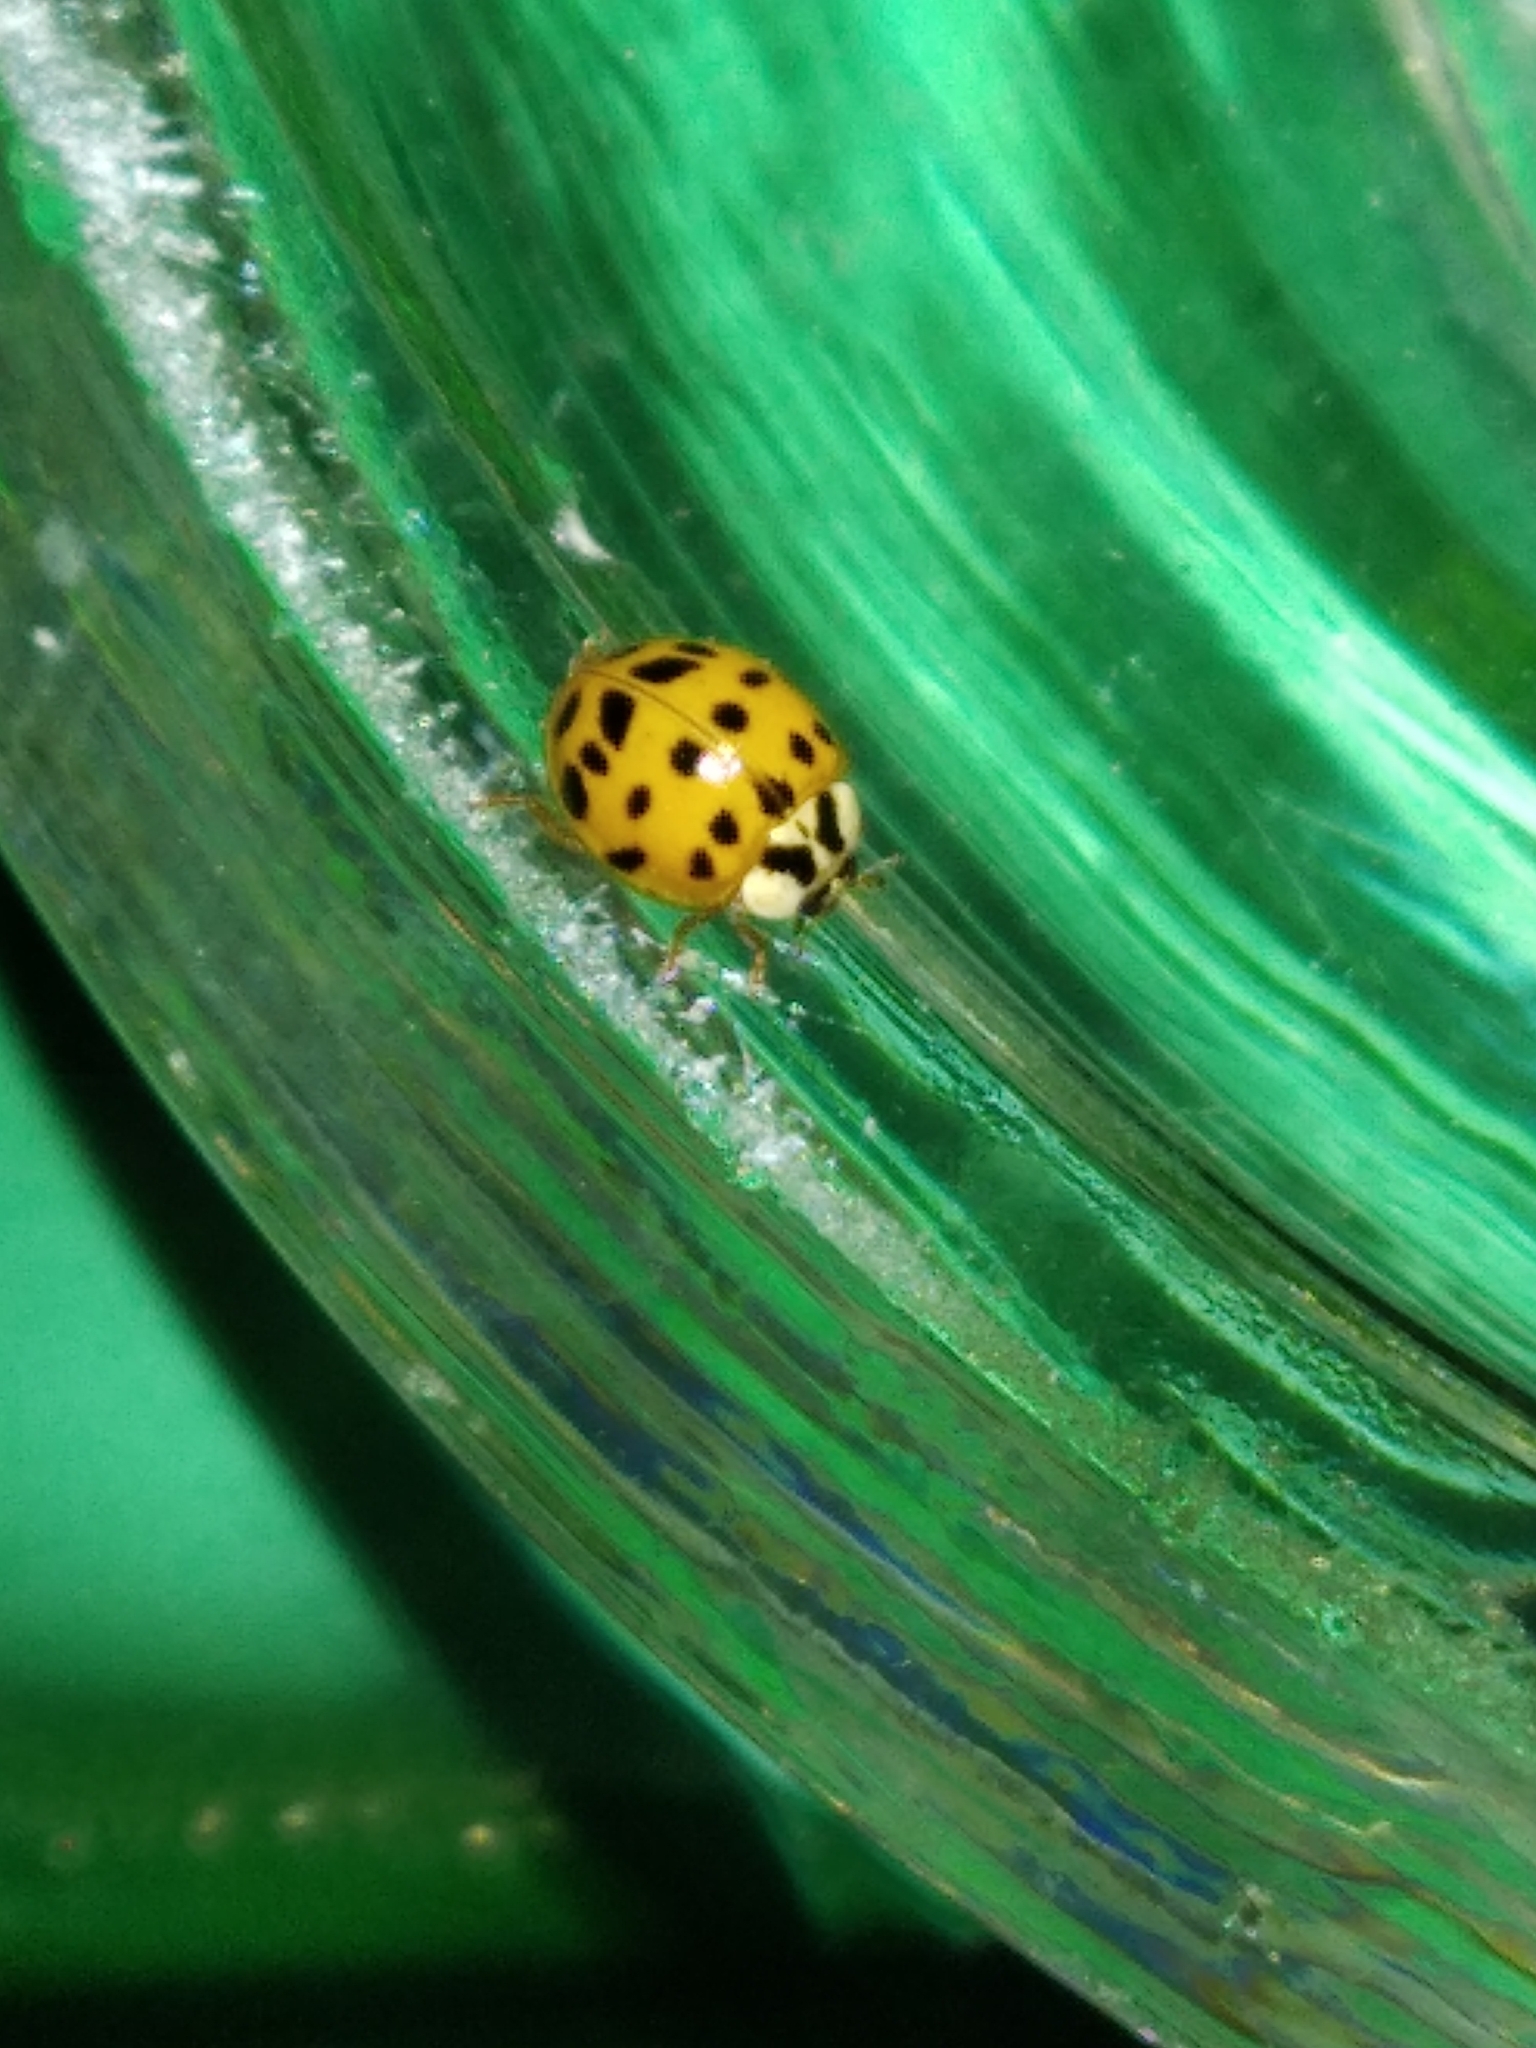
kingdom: Animalia
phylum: Arthropoda
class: Insecta
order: Coleoptera
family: Coccinellidae
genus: Harmonia
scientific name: Harmonia axyridis
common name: Harlequin ladybird
